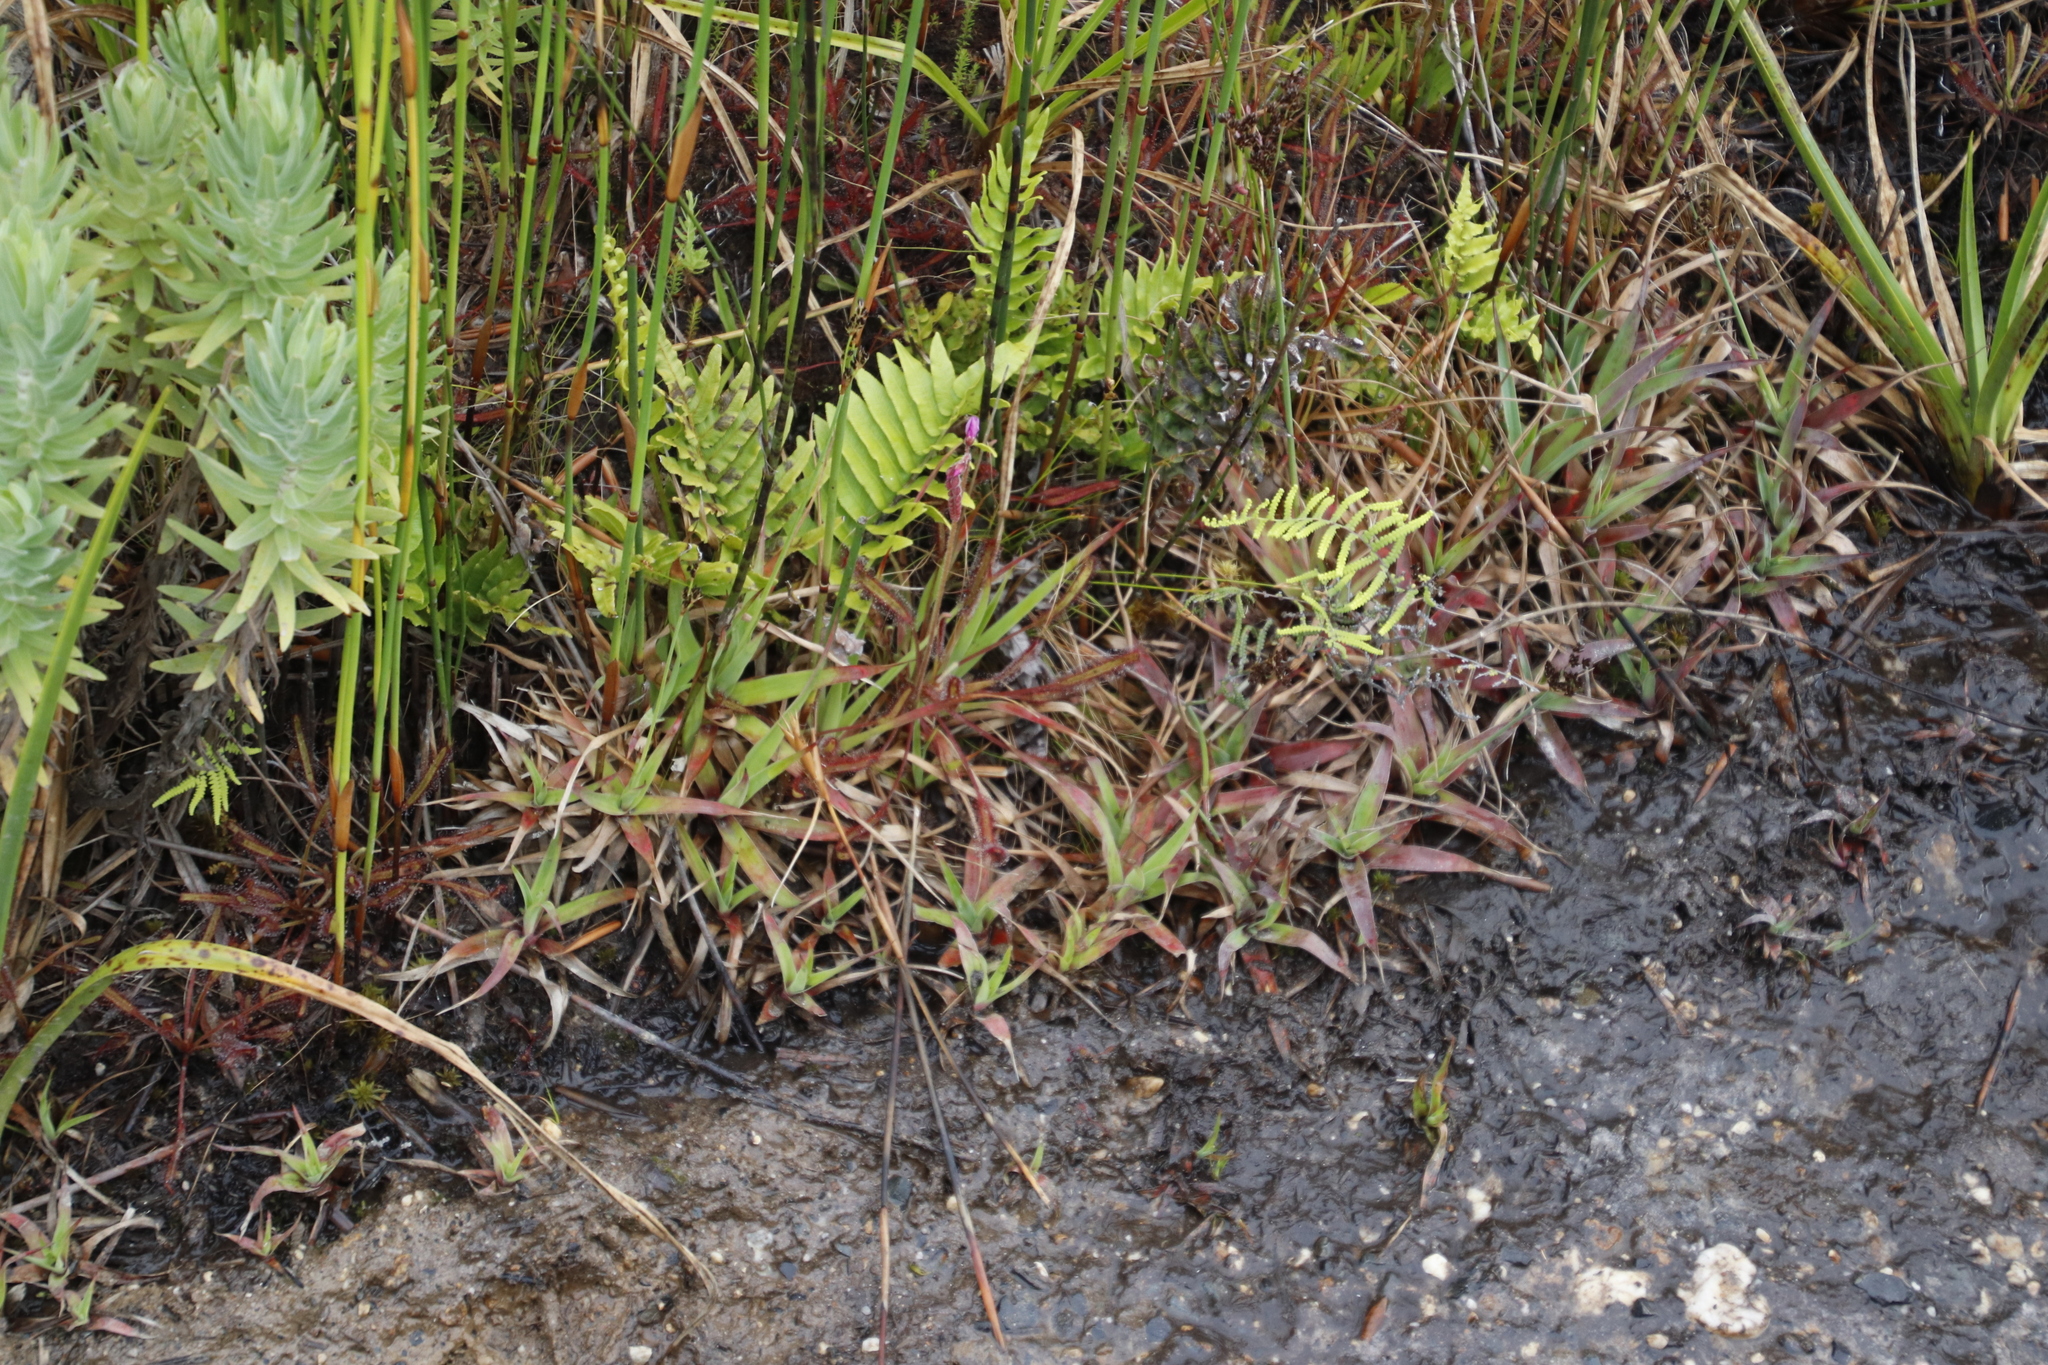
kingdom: Plantae
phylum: Tracheophyta
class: Liliopsida
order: Poales
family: Juncaceae
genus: Juncus
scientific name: Juncus lomatophyllus
